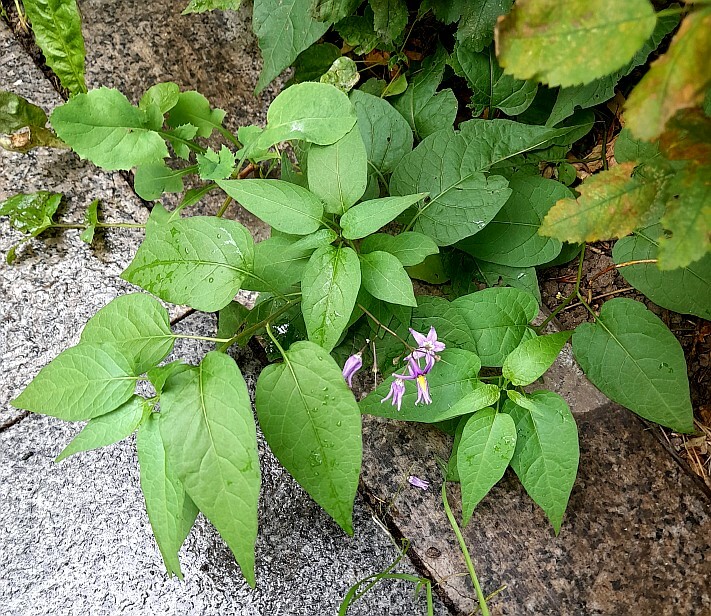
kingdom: Plantae
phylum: Tracheophyta
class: Magnoliopsida
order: Solanales
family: Solanaceae
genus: Solanum
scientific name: Solanum dulcamara
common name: Climbing nightshade
